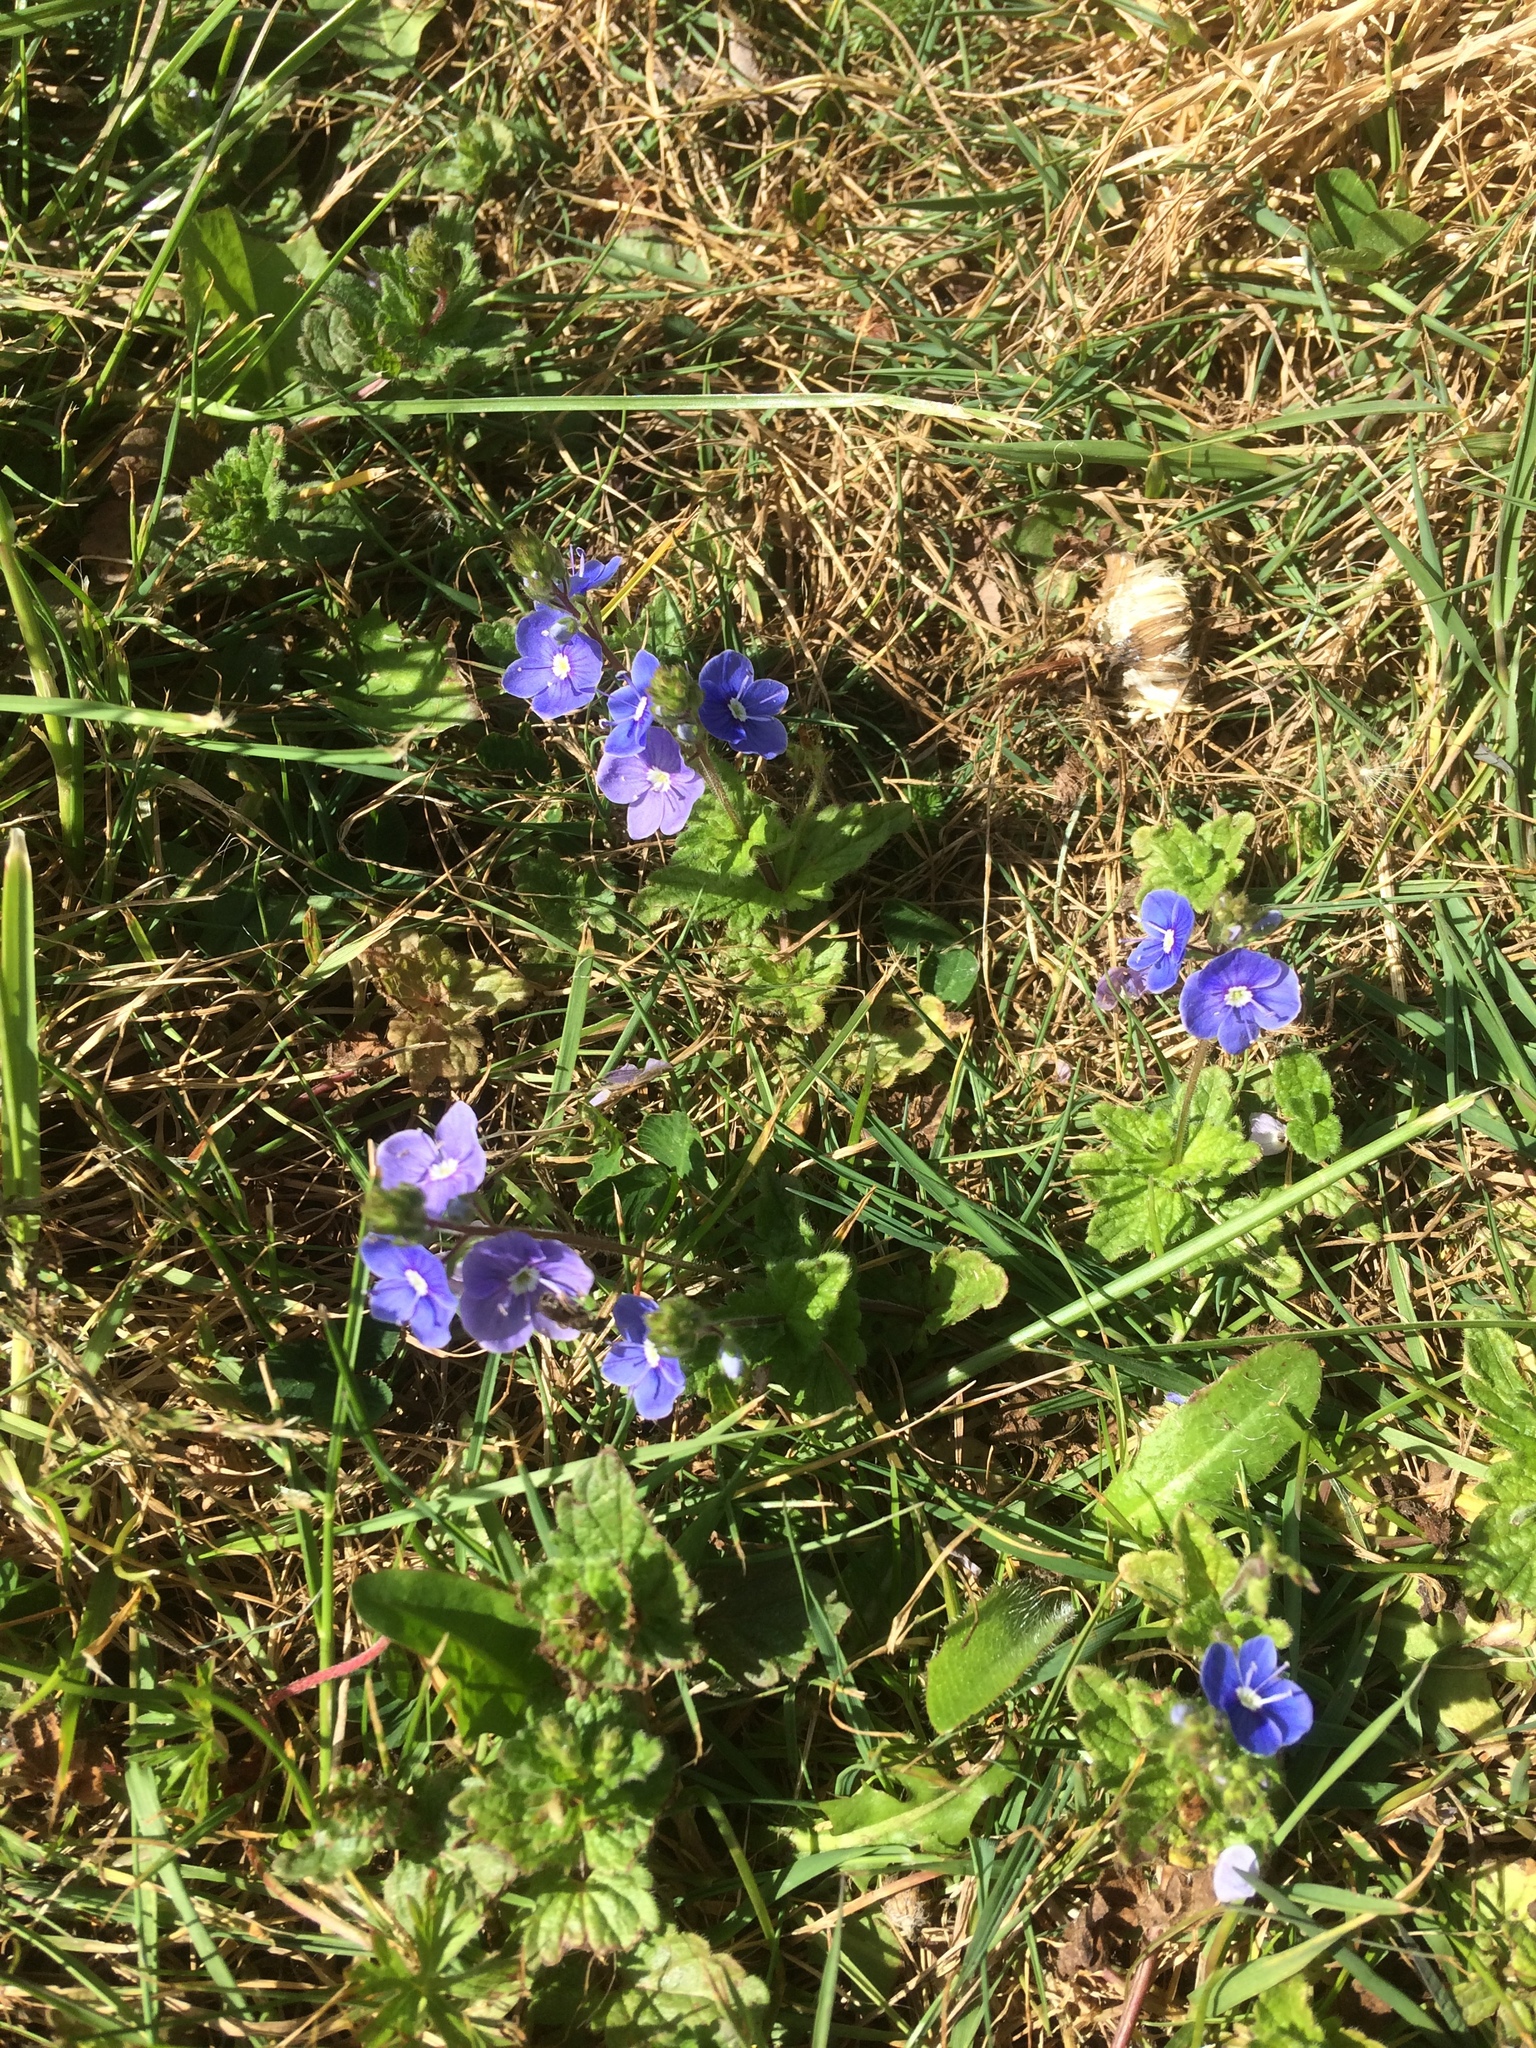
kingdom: Plantae
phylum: Tracheophyta
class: Magnoliopsida
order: Lamiales
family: Plantaginaceae
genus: Veronica
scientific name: Veronica chamaedrys
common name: Germander speedwell
